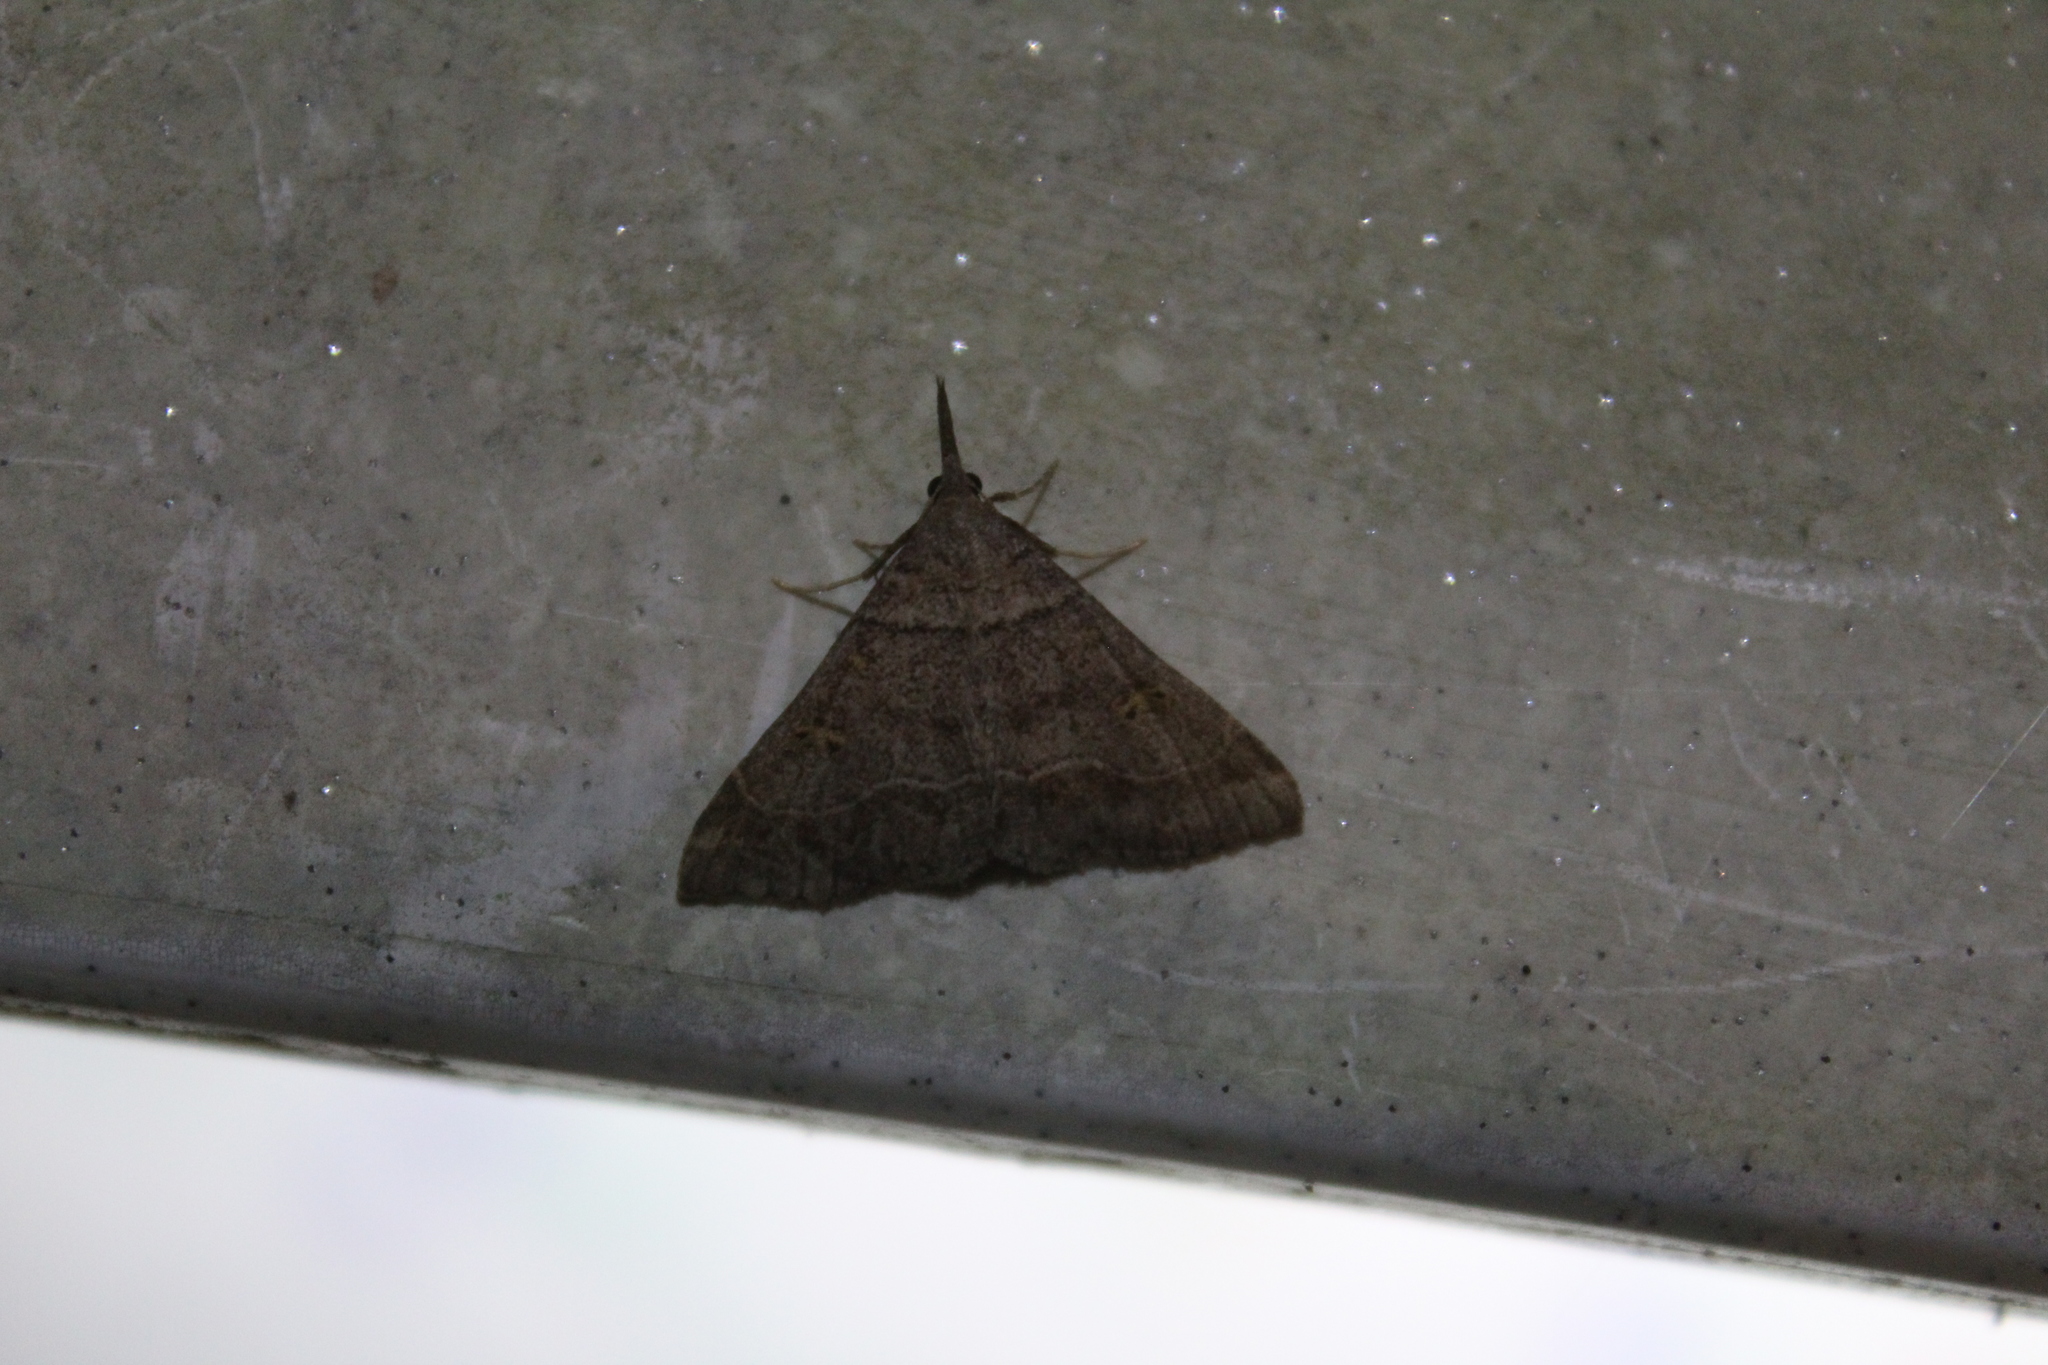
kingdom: Animalia
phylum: Arthropoda
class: Insecta
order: Lepidoptera
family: Erebidae
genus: Renia
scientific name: Renia flavipunctalis
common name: Yellow-spotted renia moth
